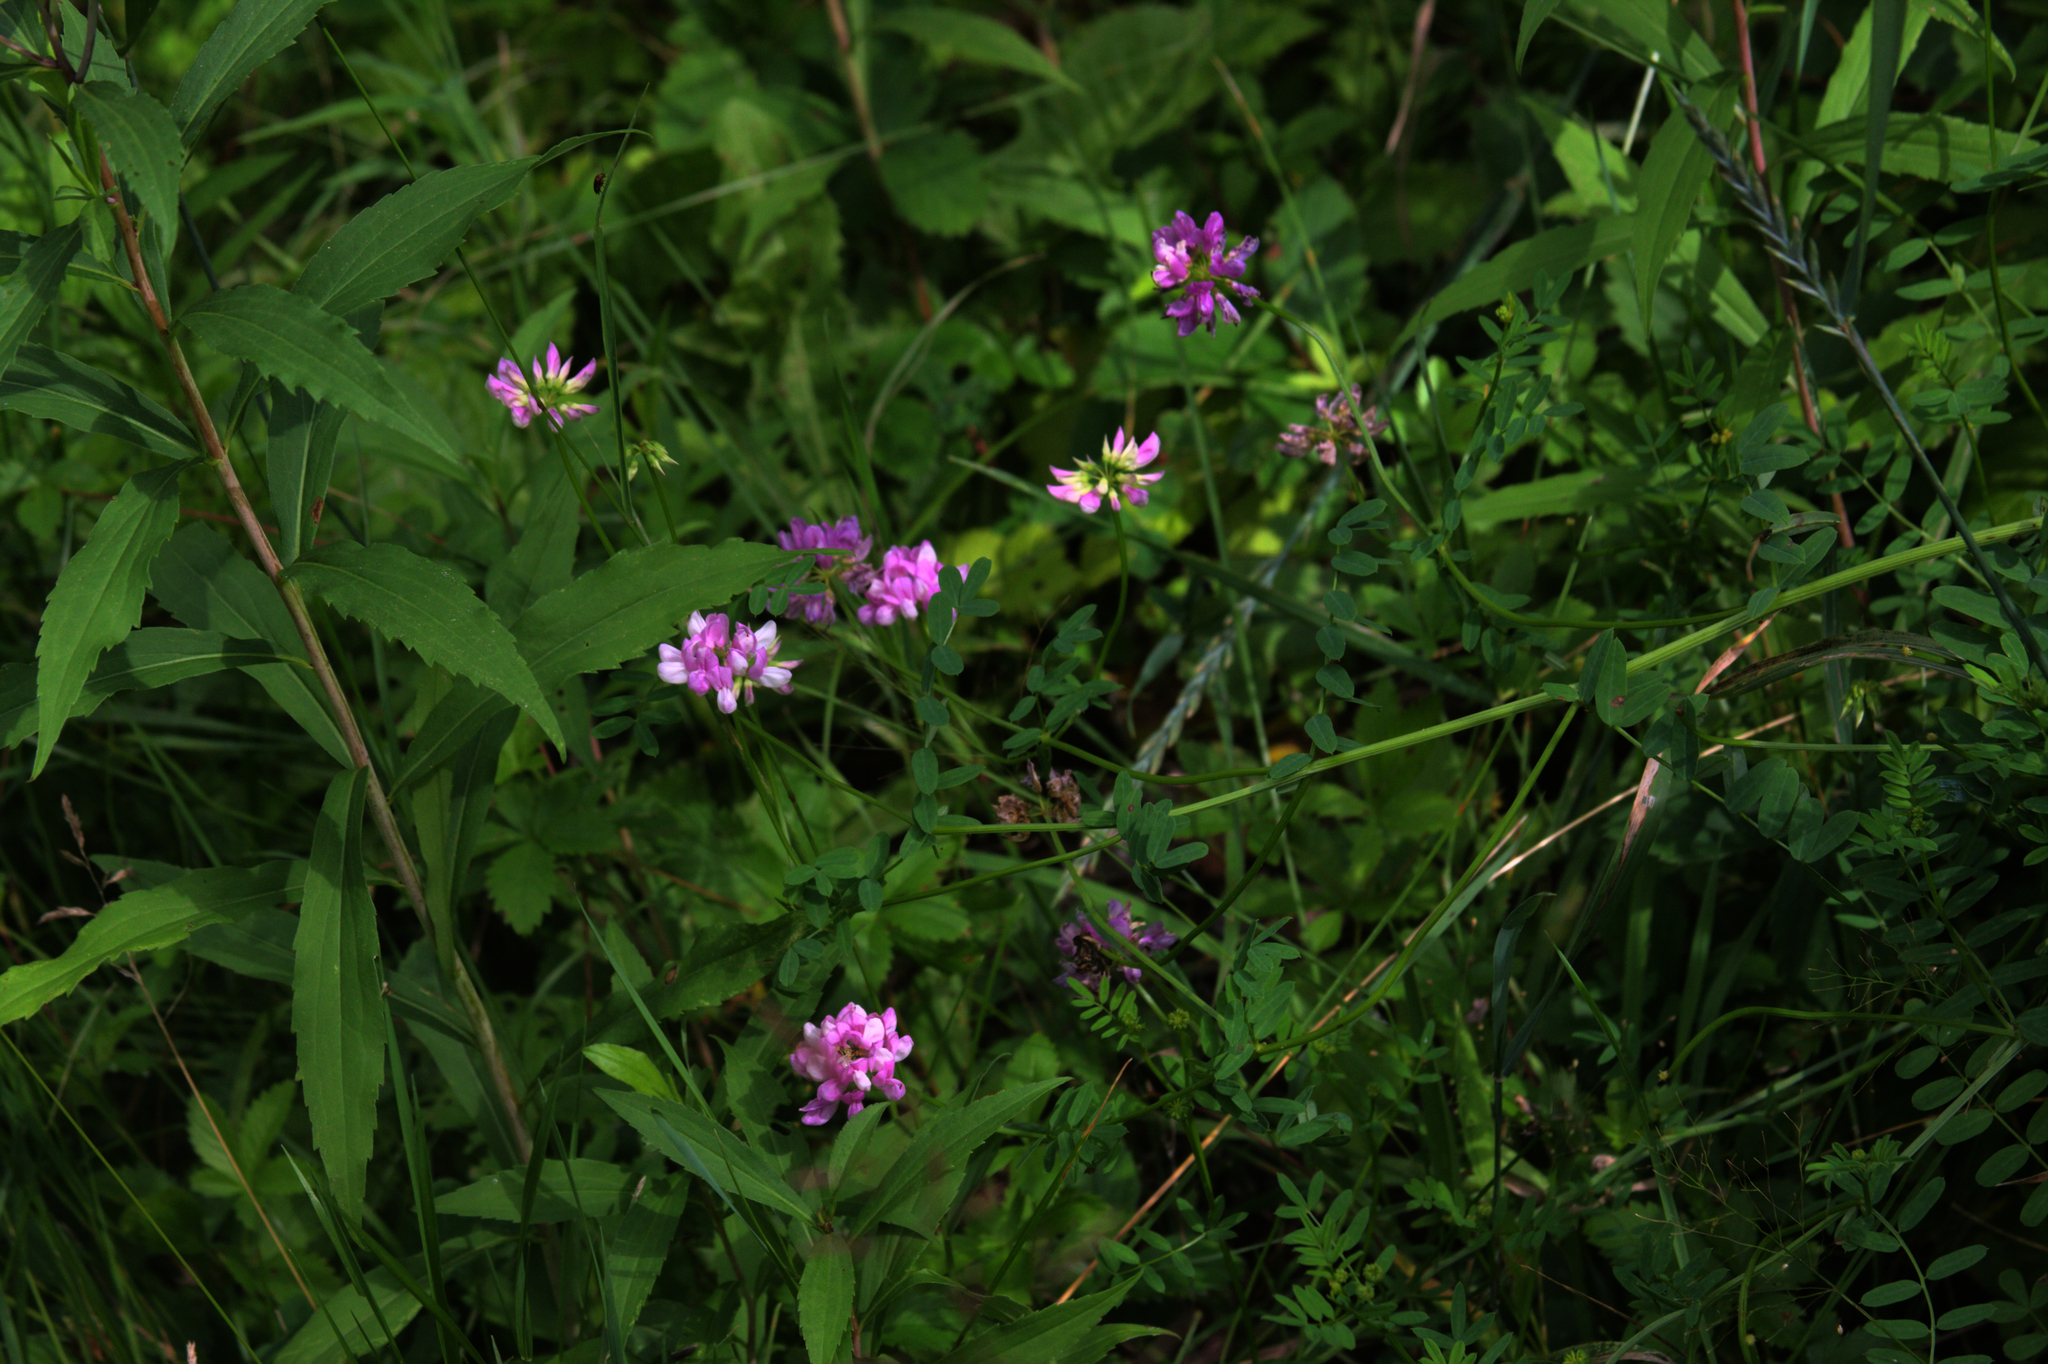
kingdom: Plantae
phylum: Tracheophyta
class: Magnoliopsida
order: Fabales
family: Fabaceae
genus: Coronilla
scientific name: Coronilla varia
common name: Crownvetch
